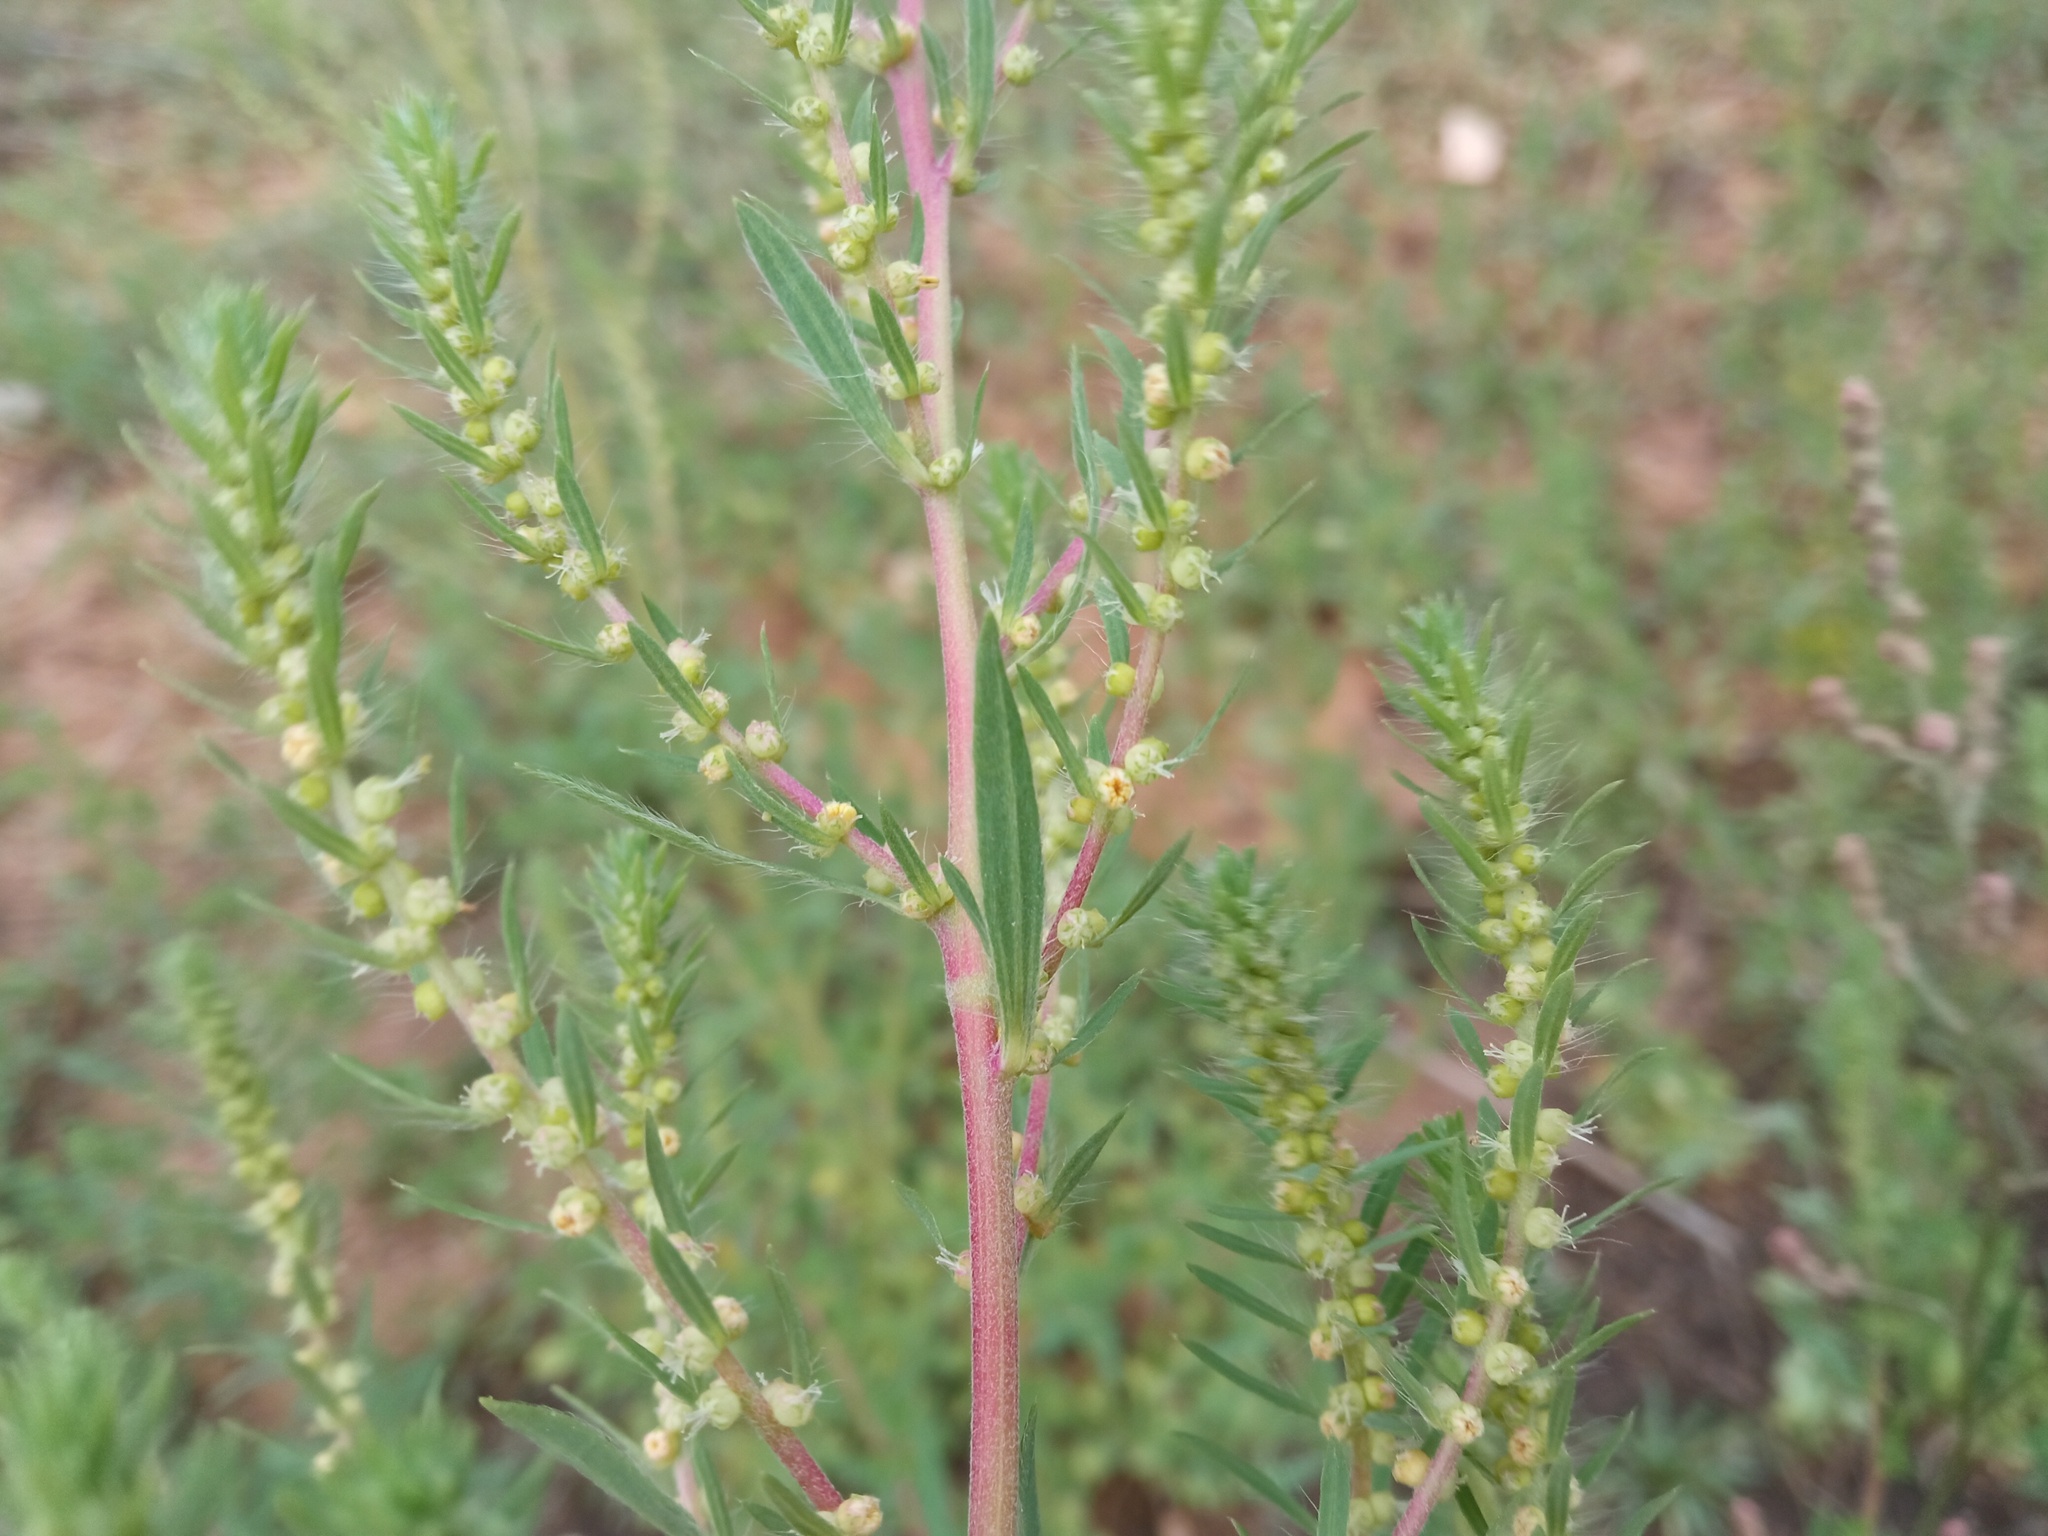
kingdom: Plantae
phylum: Tracheophyta
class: Magnoliopsida
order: Caryophyllales
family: Amaranthaceae
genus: Bassia
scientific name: Bassia scoparia
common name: Belvedere
